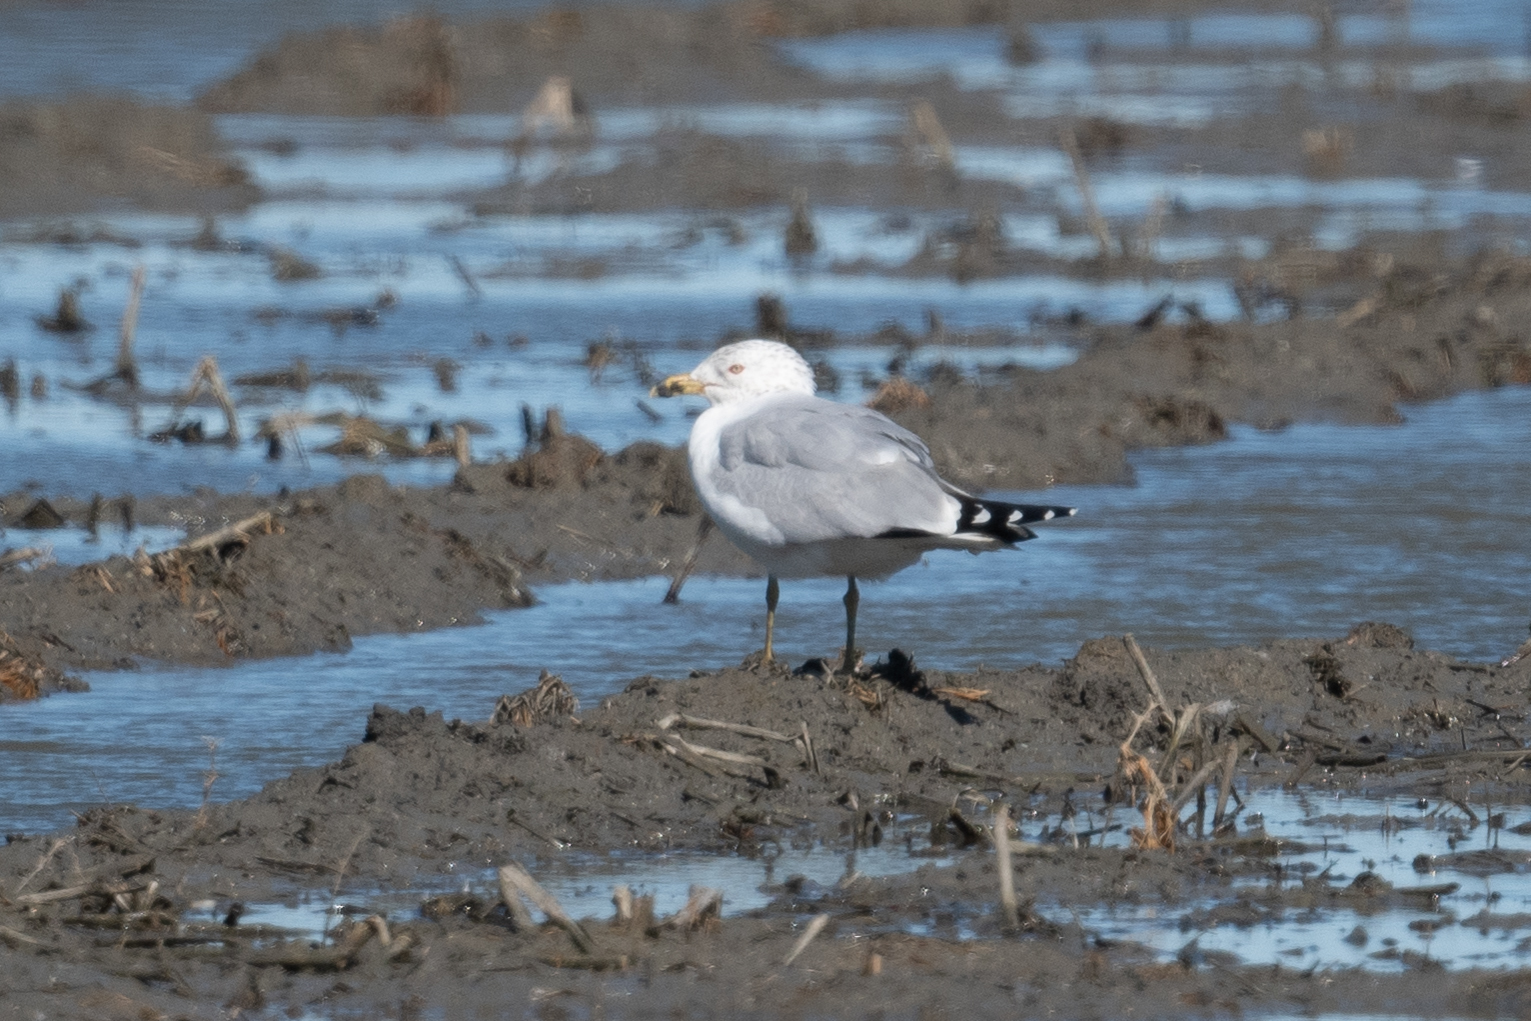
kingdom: Animalia
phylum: Chordata
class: Aves
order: Charadriiformes
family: Laridae
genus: Larus
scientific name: Larus delawarensis
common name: Ring-billed gull
